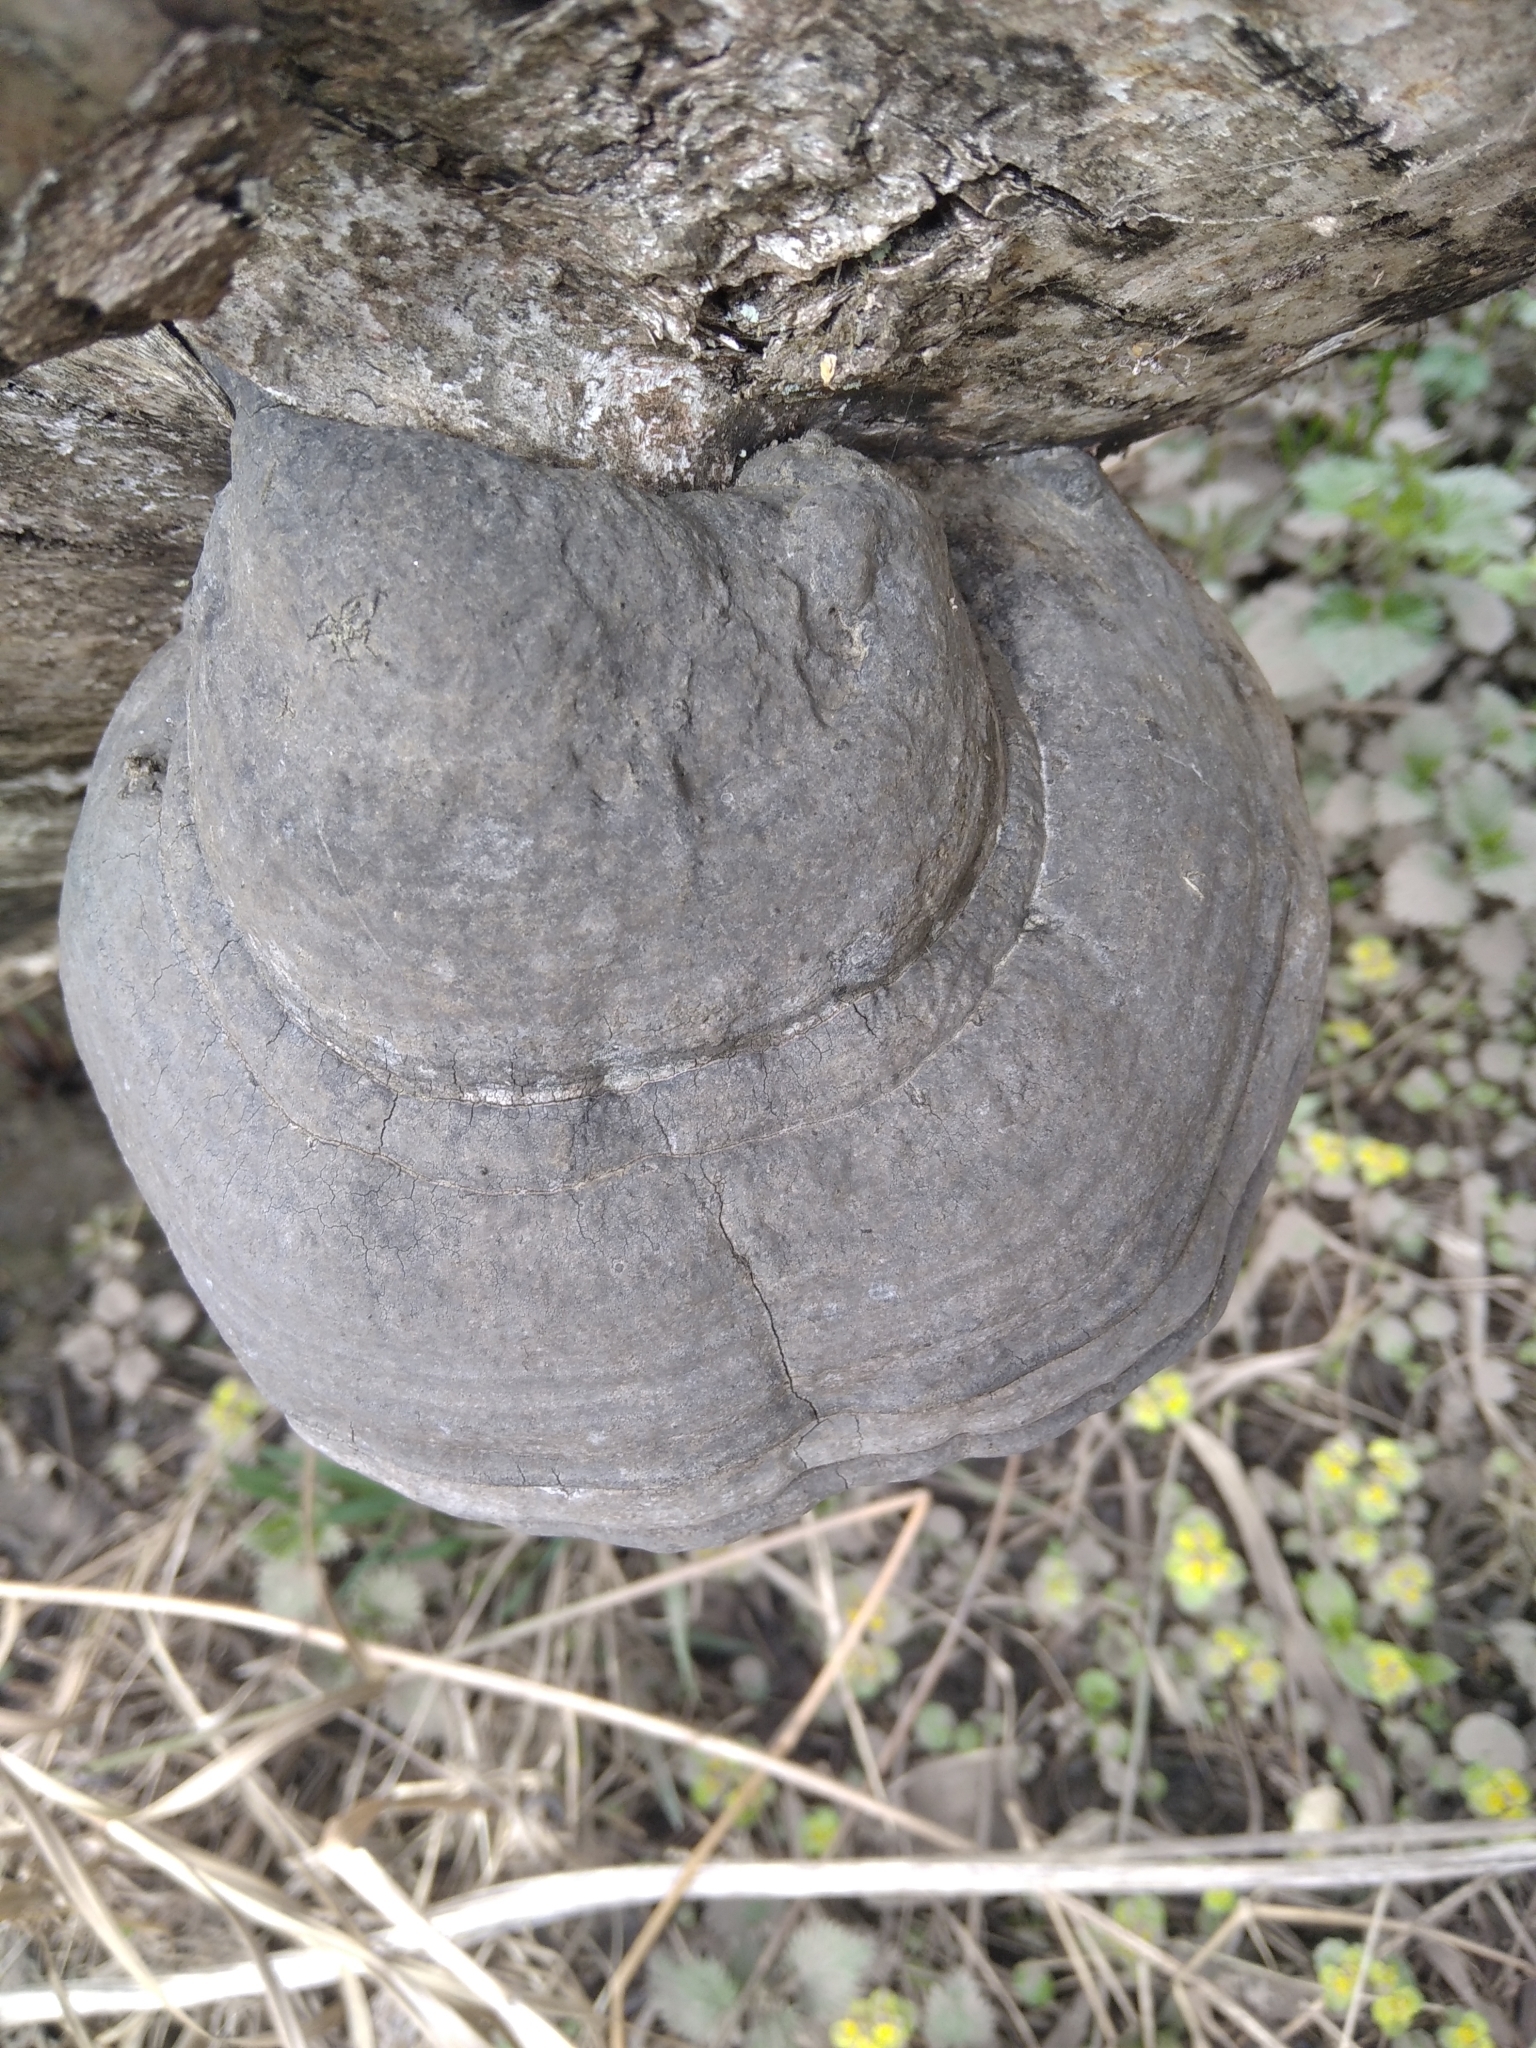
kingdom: Fungi
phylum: Basidiomycota
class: Agaricomycetes
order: Polyporales
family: Polyporaceae
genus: Fomes
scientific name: Fomes fomentarius
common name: Hoof fungus
